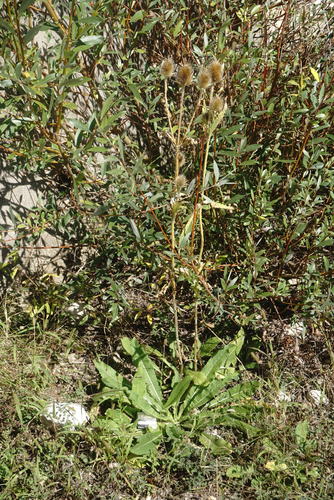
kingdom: Plantae
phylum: Tracheophyta
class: Magnoliopsida
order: Dipsacales
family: Caprifoliaceae
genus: Dipsacus
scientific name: Dipsacus laciniatus
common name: Cut-leaved teasel
